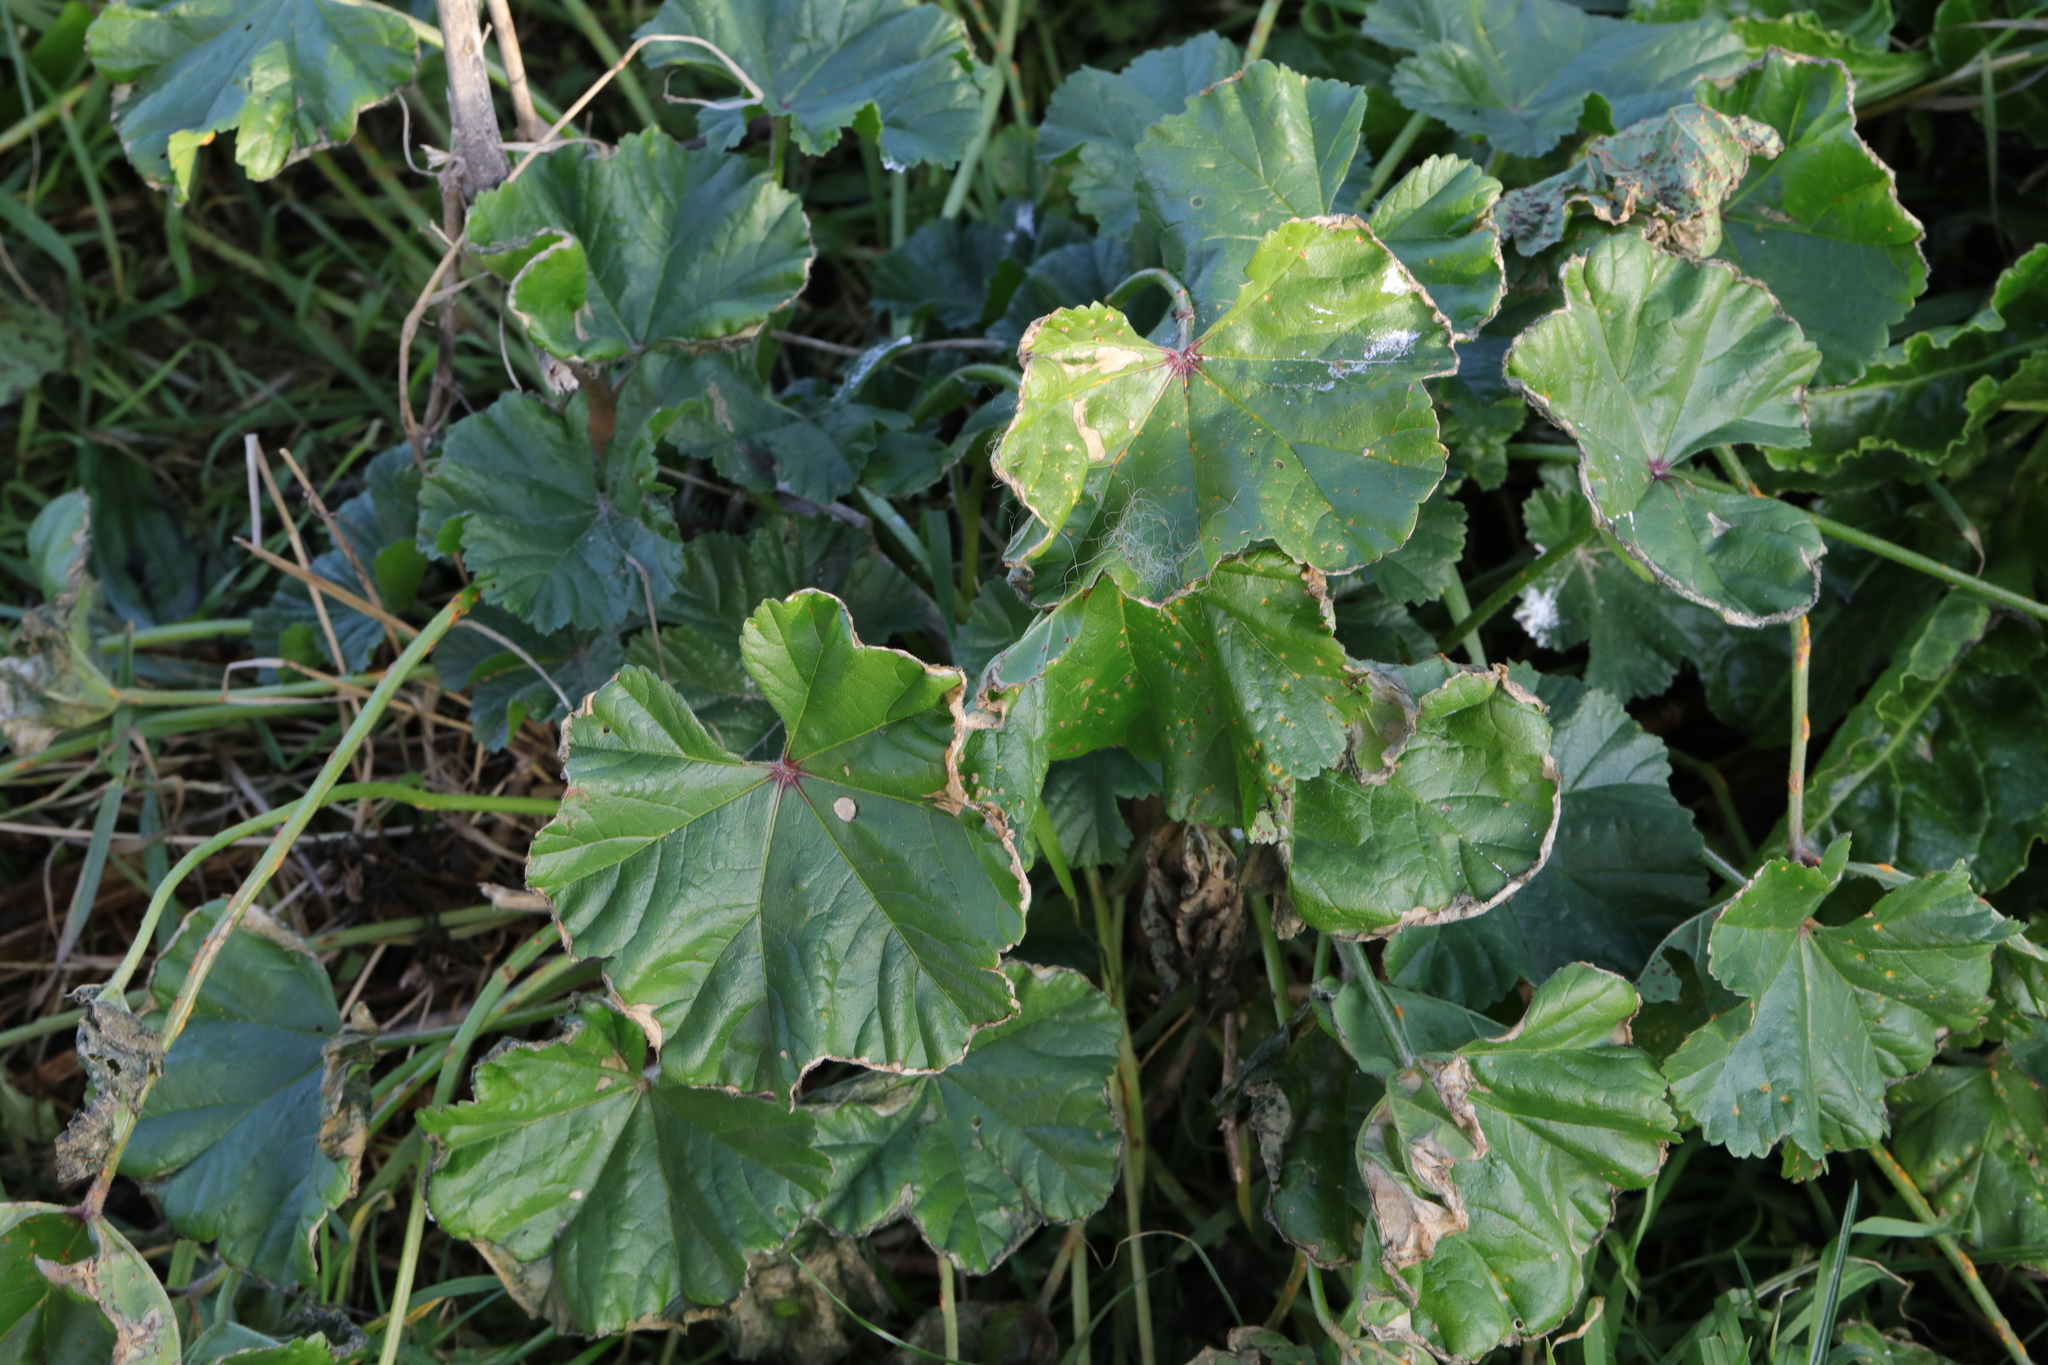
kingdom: Plantae
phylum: Tracheophyta
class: Magnoliopsida
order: Malvales
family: Malvaceae
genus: Malva
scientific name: Malva sylvestris
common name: Common mallow
